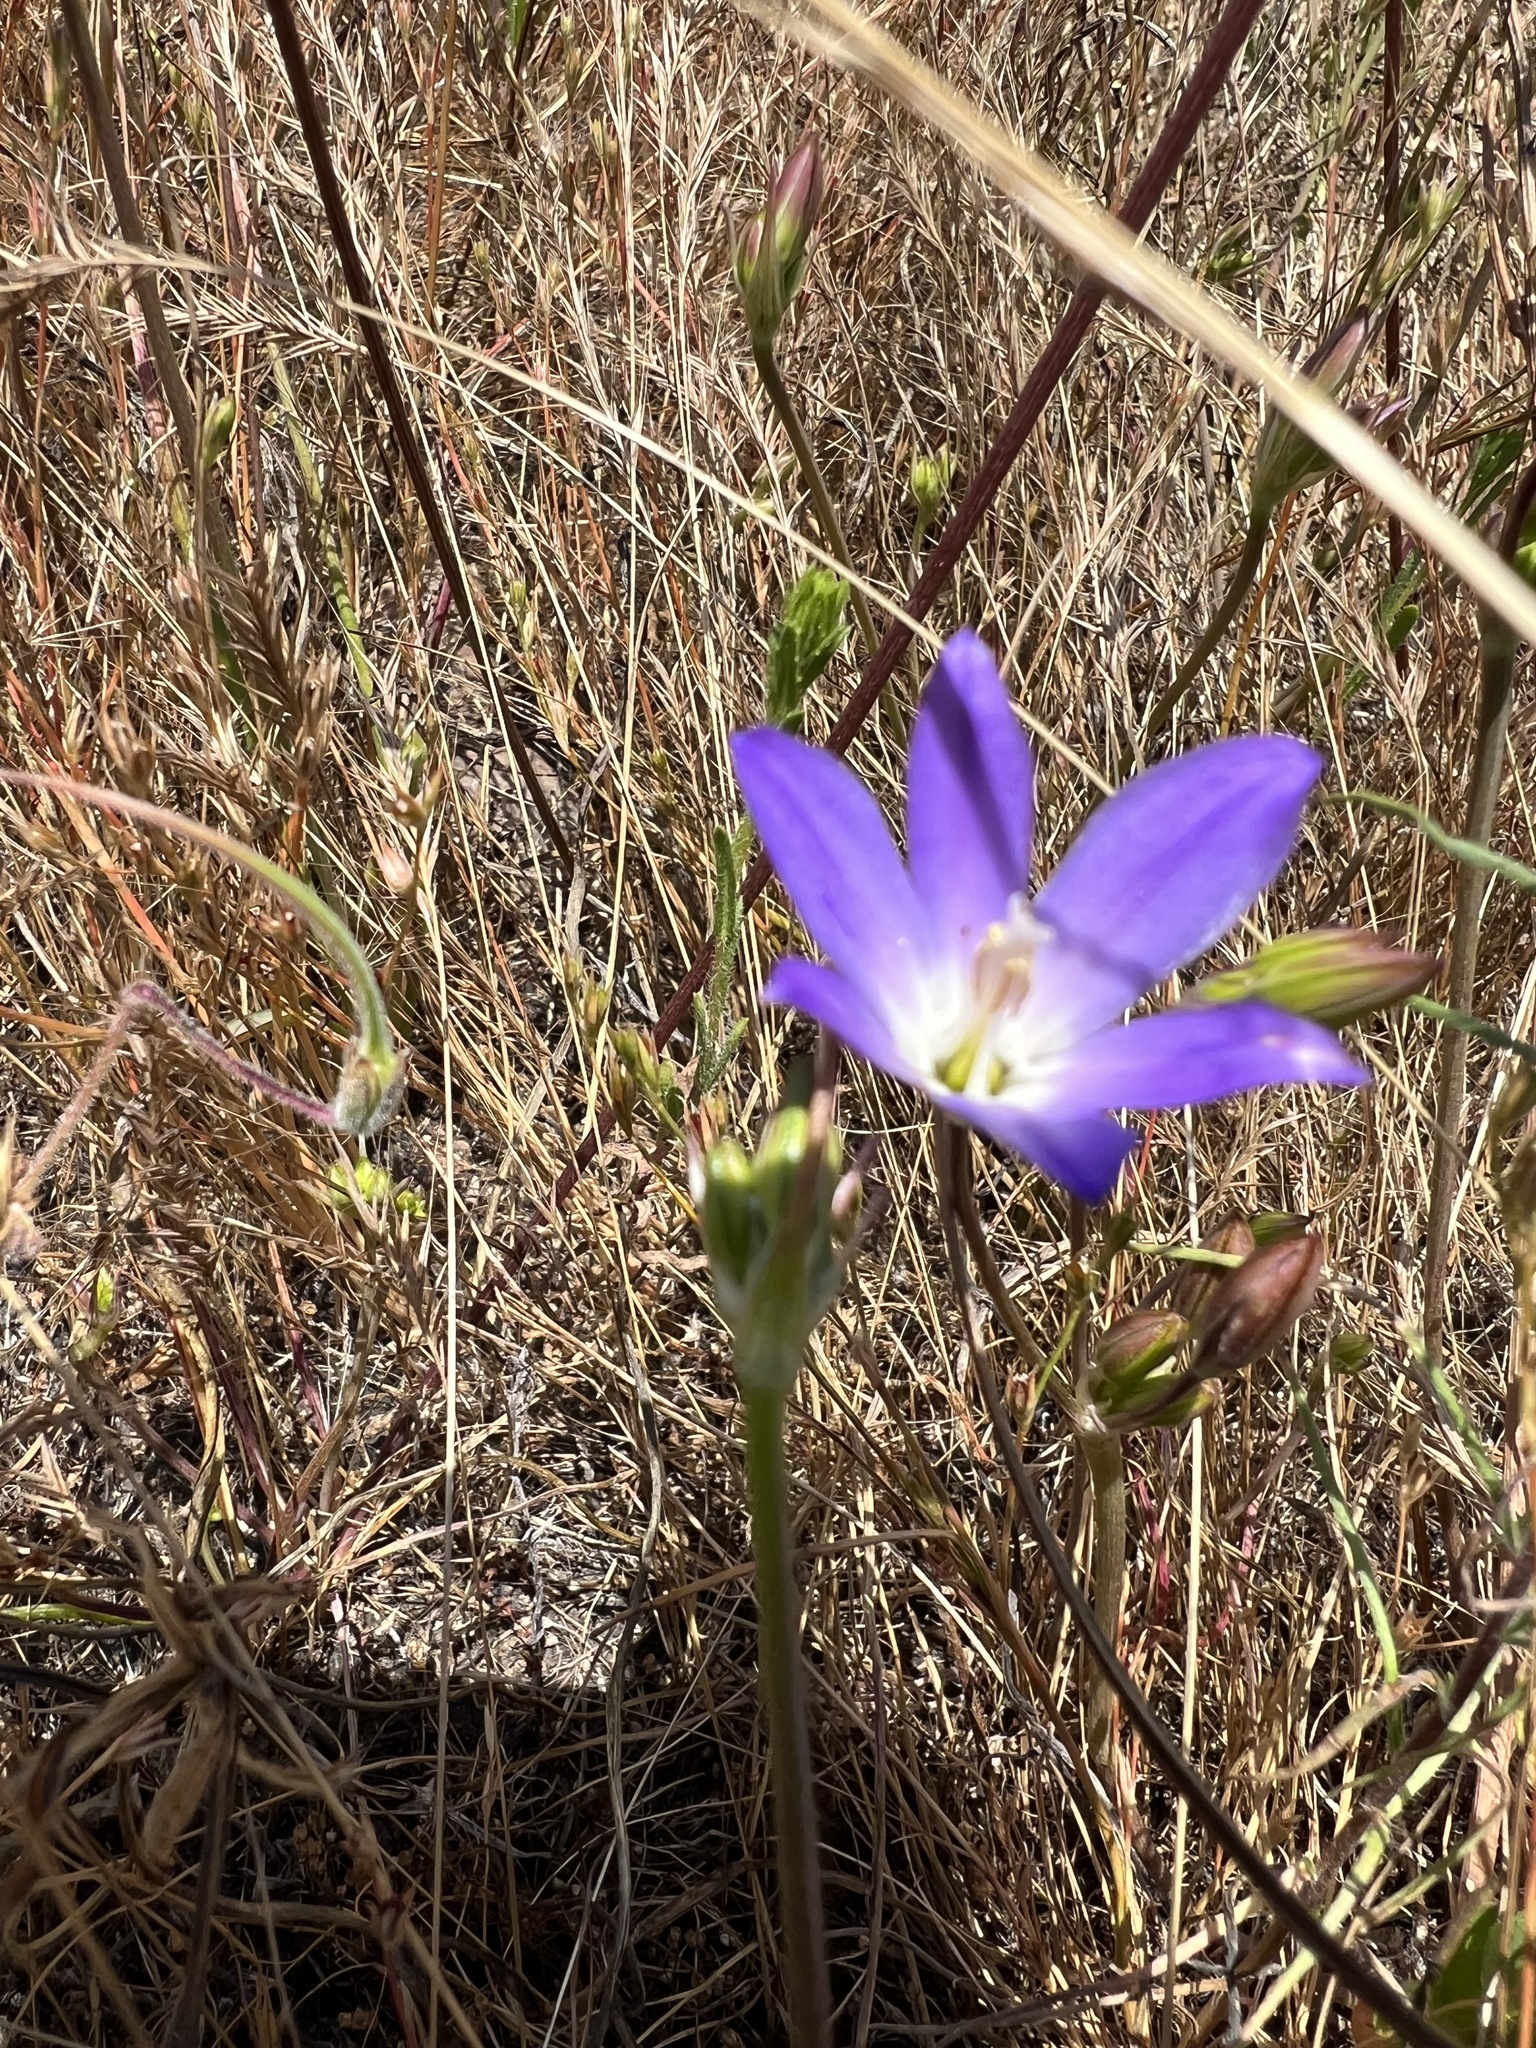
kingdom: Plantae
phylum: Tracheophyta
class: Liliopsida
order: Asparagales
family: Asparagaceae
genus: Brodiaea
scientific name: Brodiaea orcuttii
